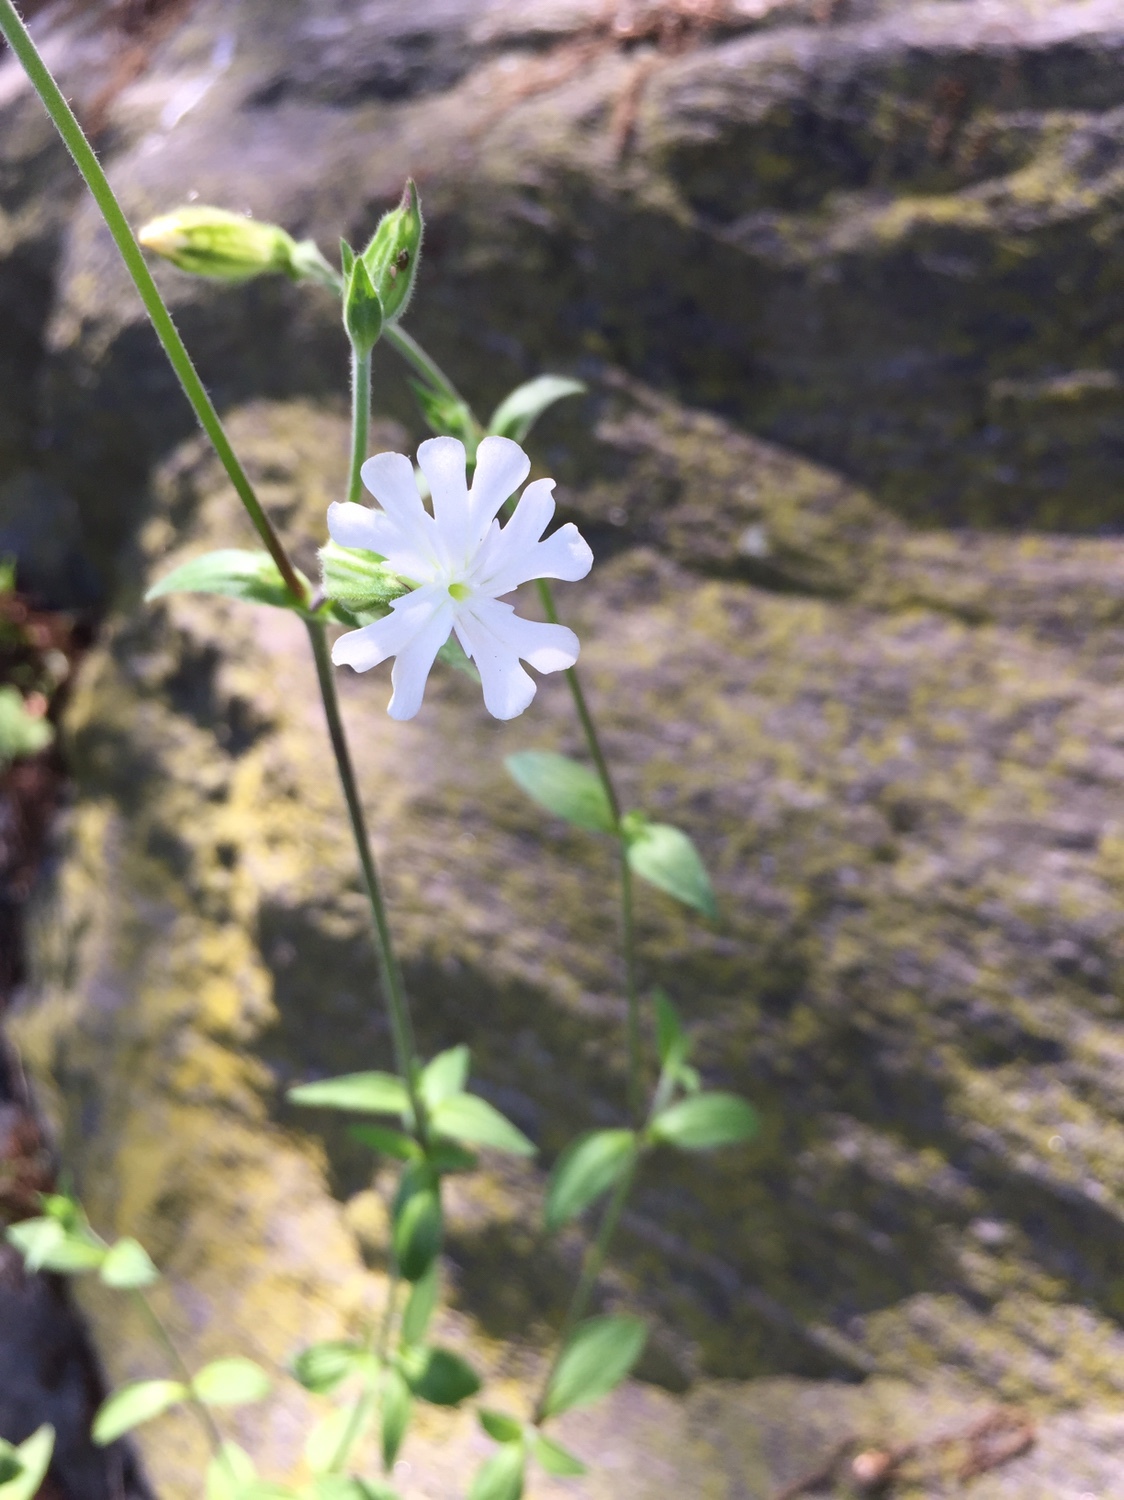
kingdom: Plantae
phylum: Tracheophyta
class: Magnoliopsida
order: Caryophyllales
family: Caryophyllaceae
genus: Silene
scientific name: Silene latifolia
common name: White campion
